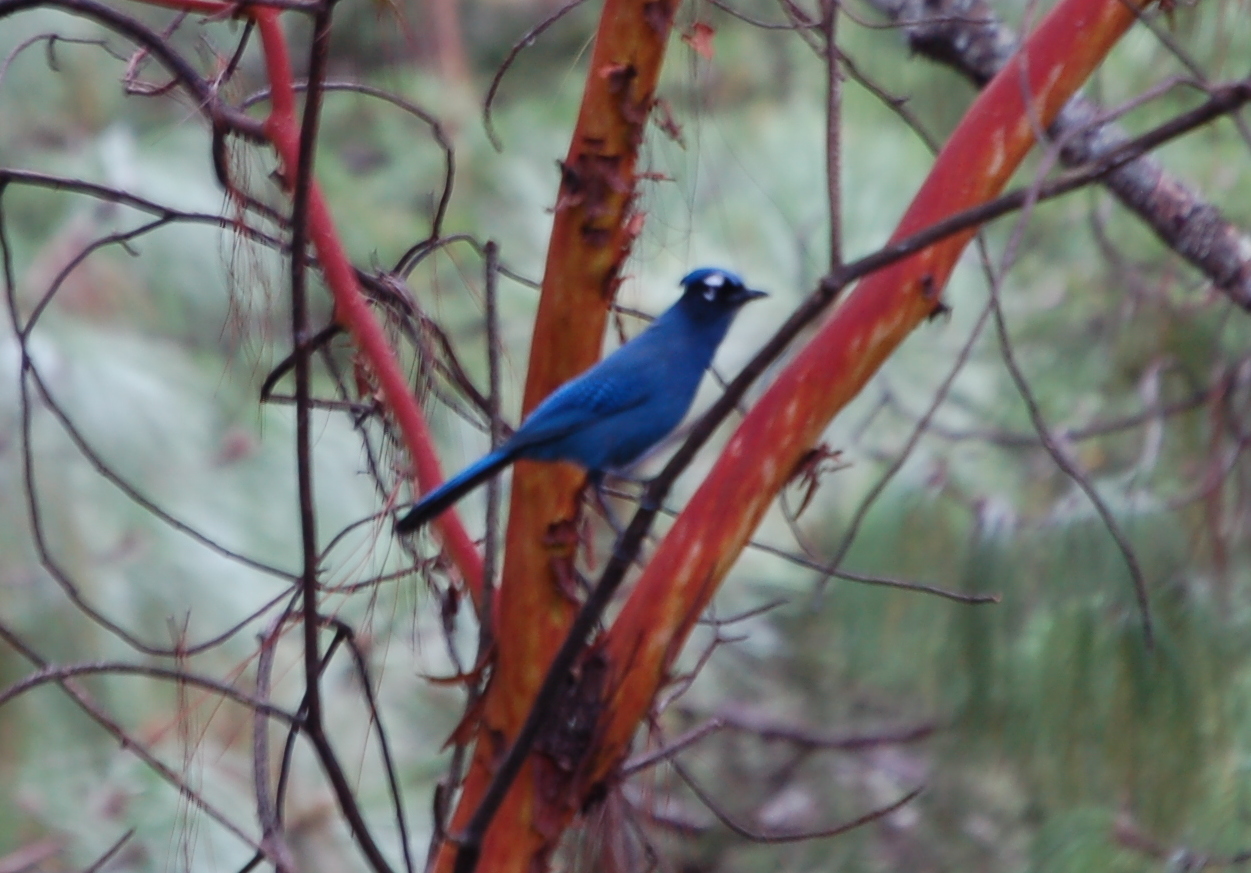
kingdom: Animalia
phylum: Chordata
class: Aves
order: Passeriformes
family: Corvidae
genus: Cyanocitta
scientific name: Cyanocitta stelleri
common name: Steller's jay
